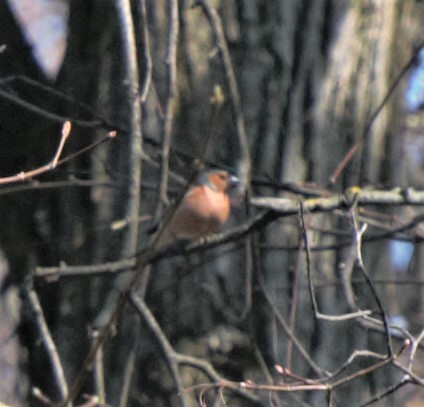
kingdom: Animalia
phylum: Chordata
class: Aves
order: Passeriformes
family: Fringillidae
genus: Fringilla
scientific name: Fringilla coelebs
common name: Common chaffinch
